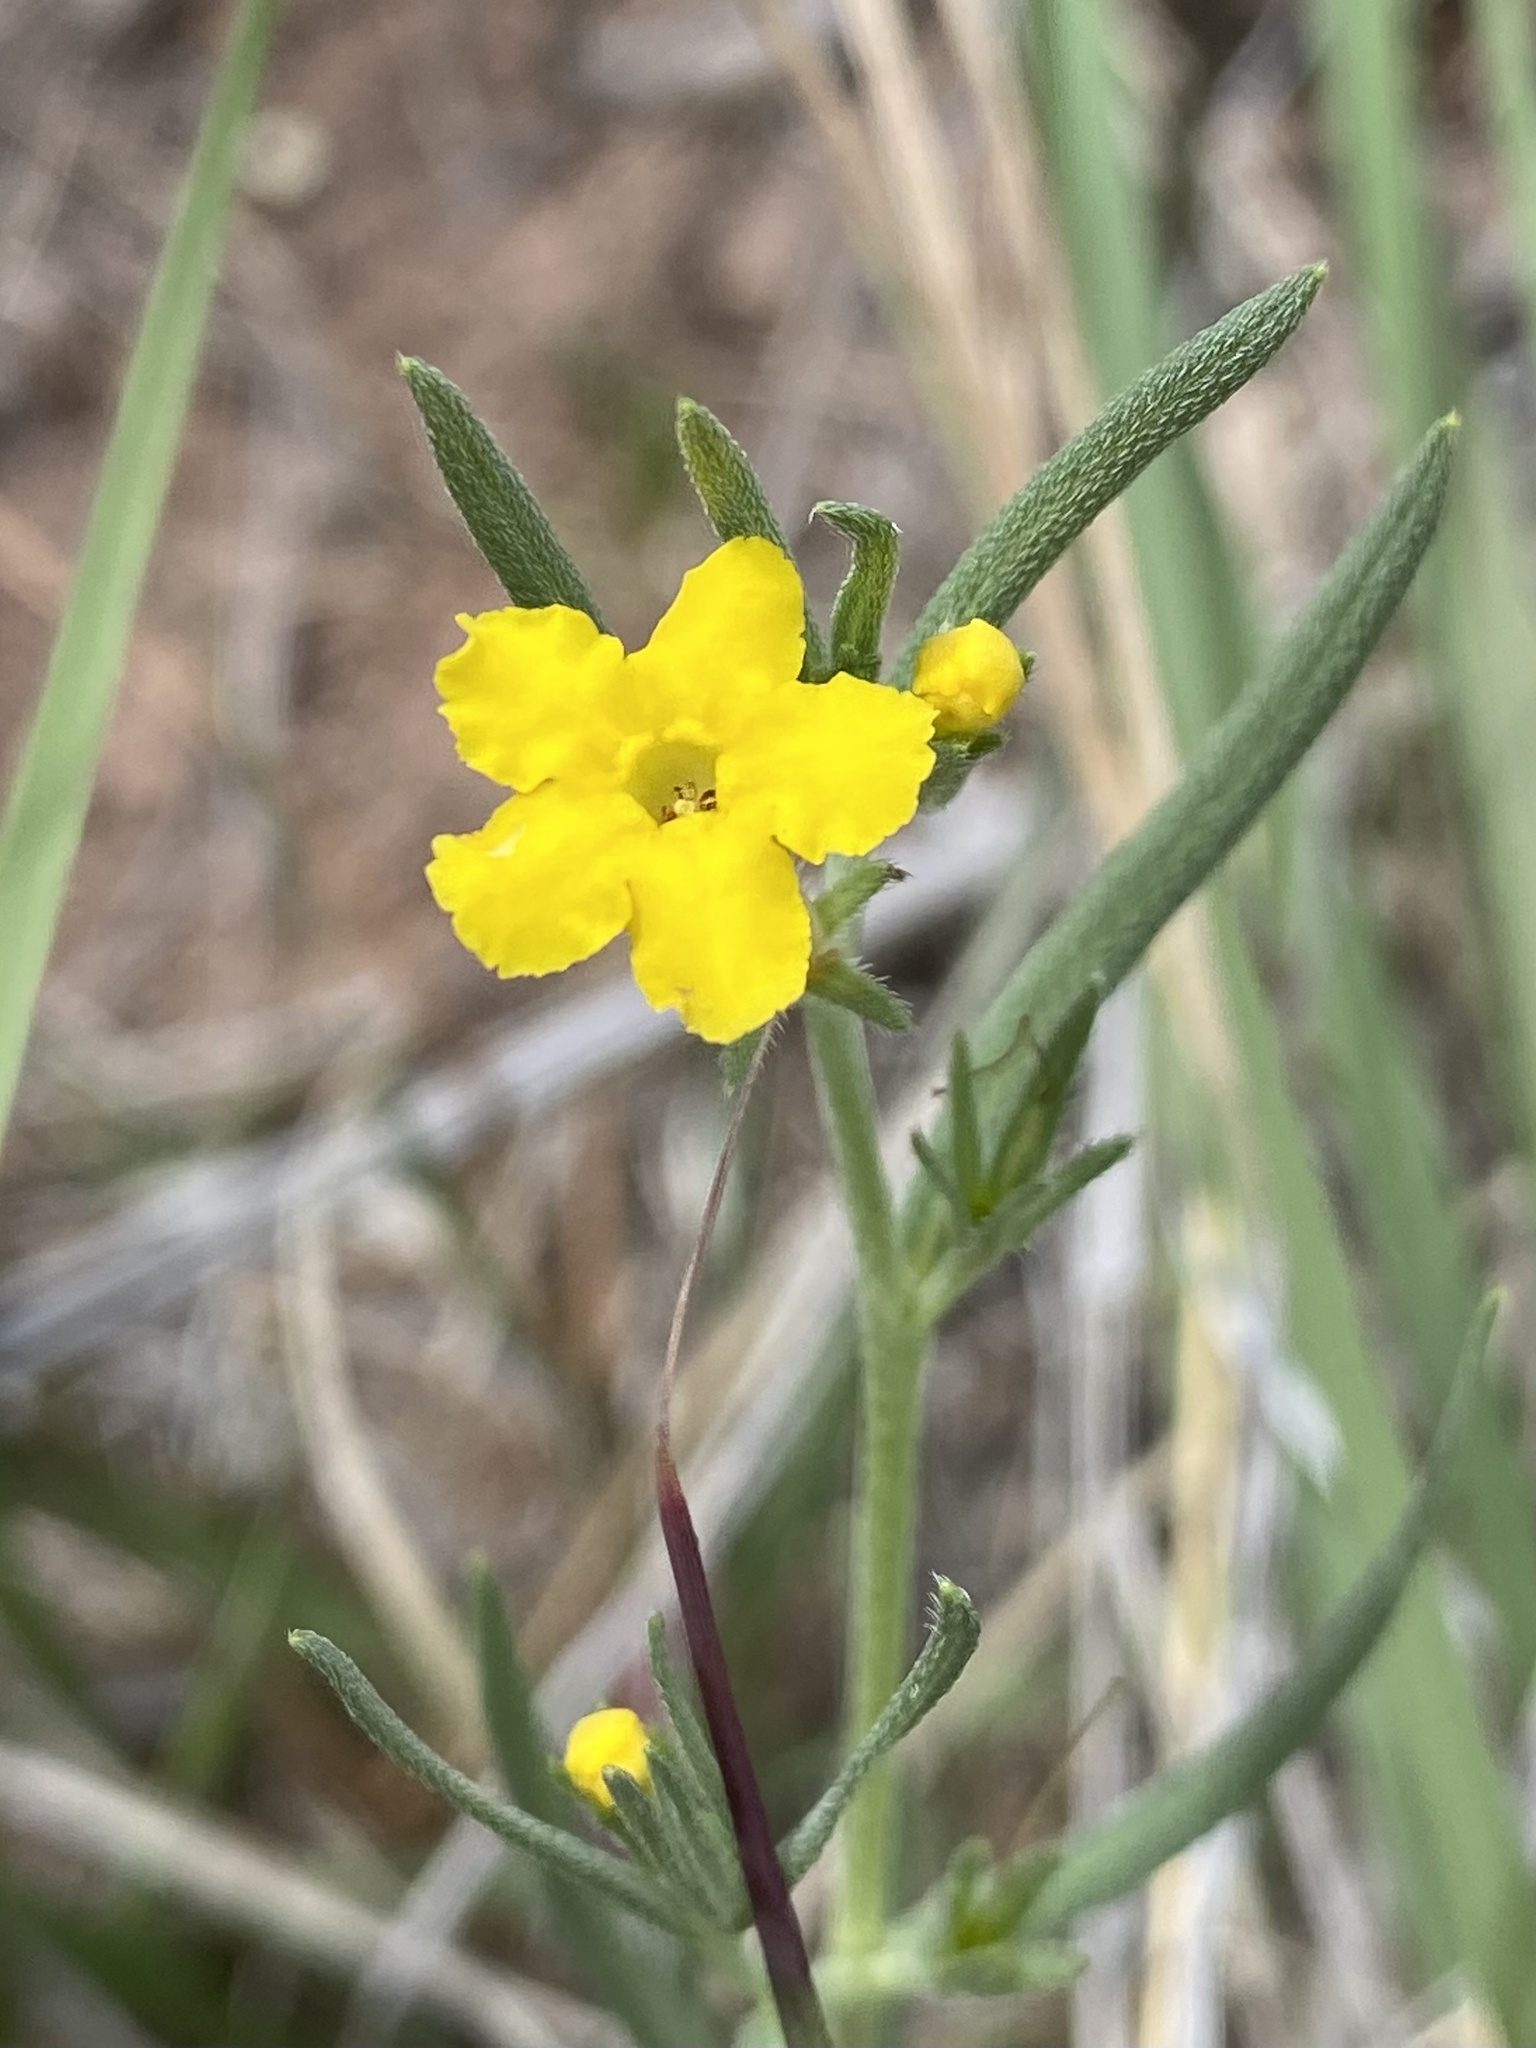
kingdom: Plantae
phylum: Tracheophyta
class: Magnoliopsida
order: Boraginales
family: Boraginaceae
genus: Lithospermum
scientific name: Lithospermum incisum
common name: Fringed gromwell
